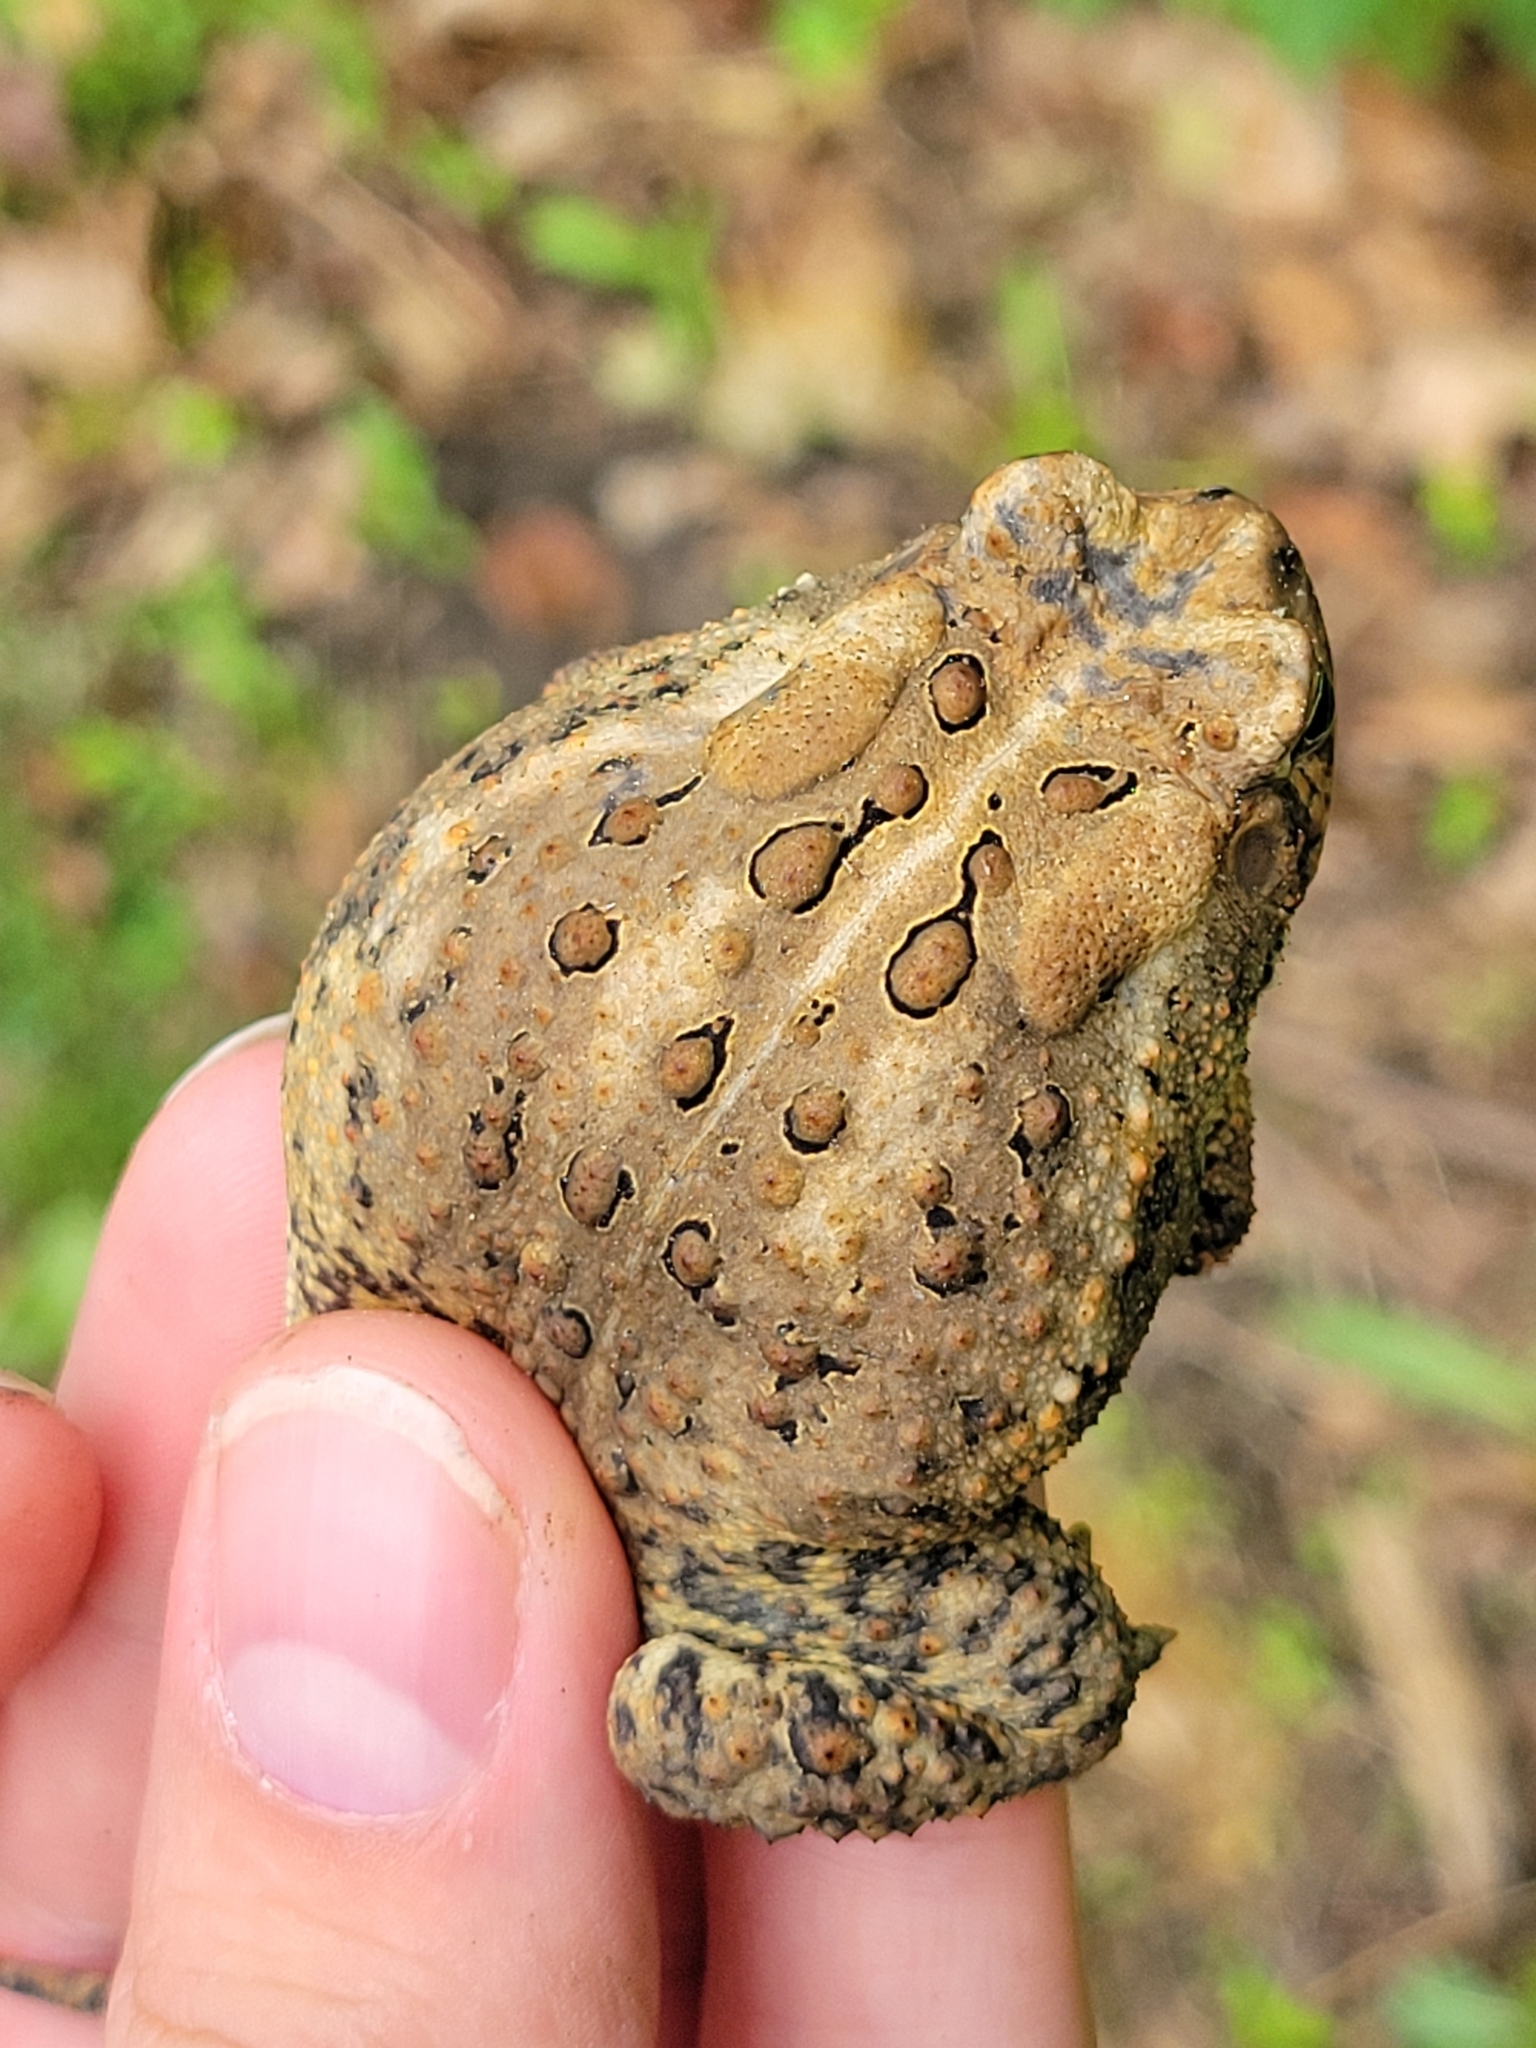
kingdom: Animalia
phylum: Chordata
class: Amphibia
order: Anura
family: Bufonidae
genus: Anaxyrus
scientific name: Anaxyrus americanus
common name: American toad
